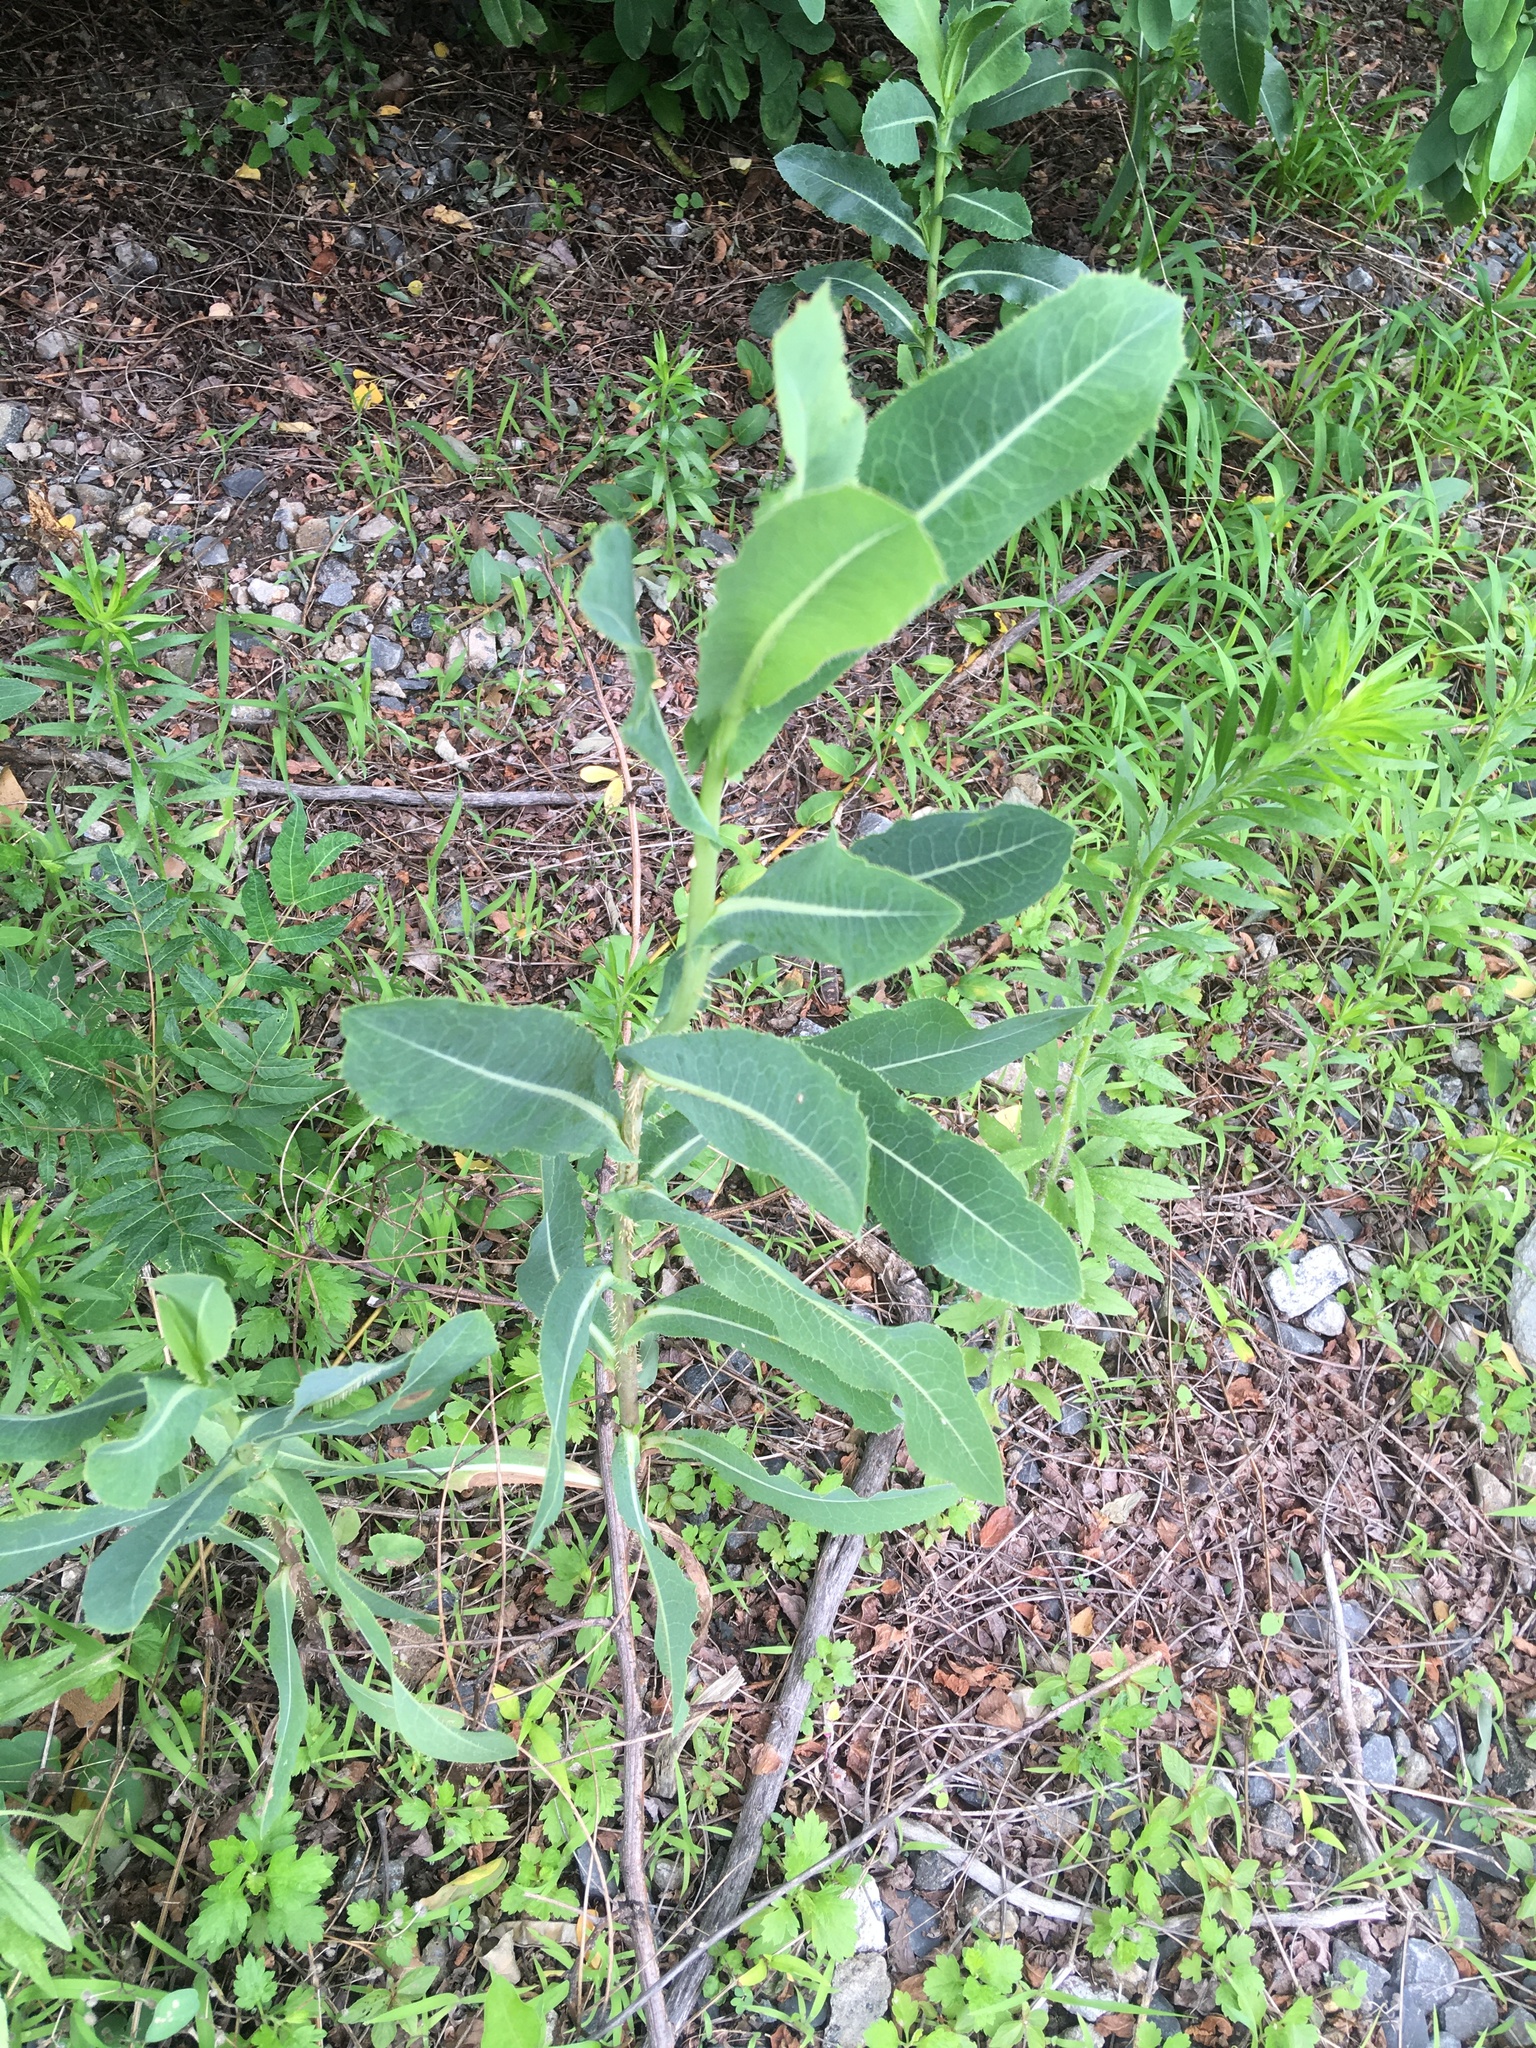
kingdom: Plantae
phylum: Tracheophyta
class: Magnoliopsida
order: Asterales
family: Asteraceae
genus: Lactuca
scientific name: Lactuca serriola
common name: Prickly lettuce
